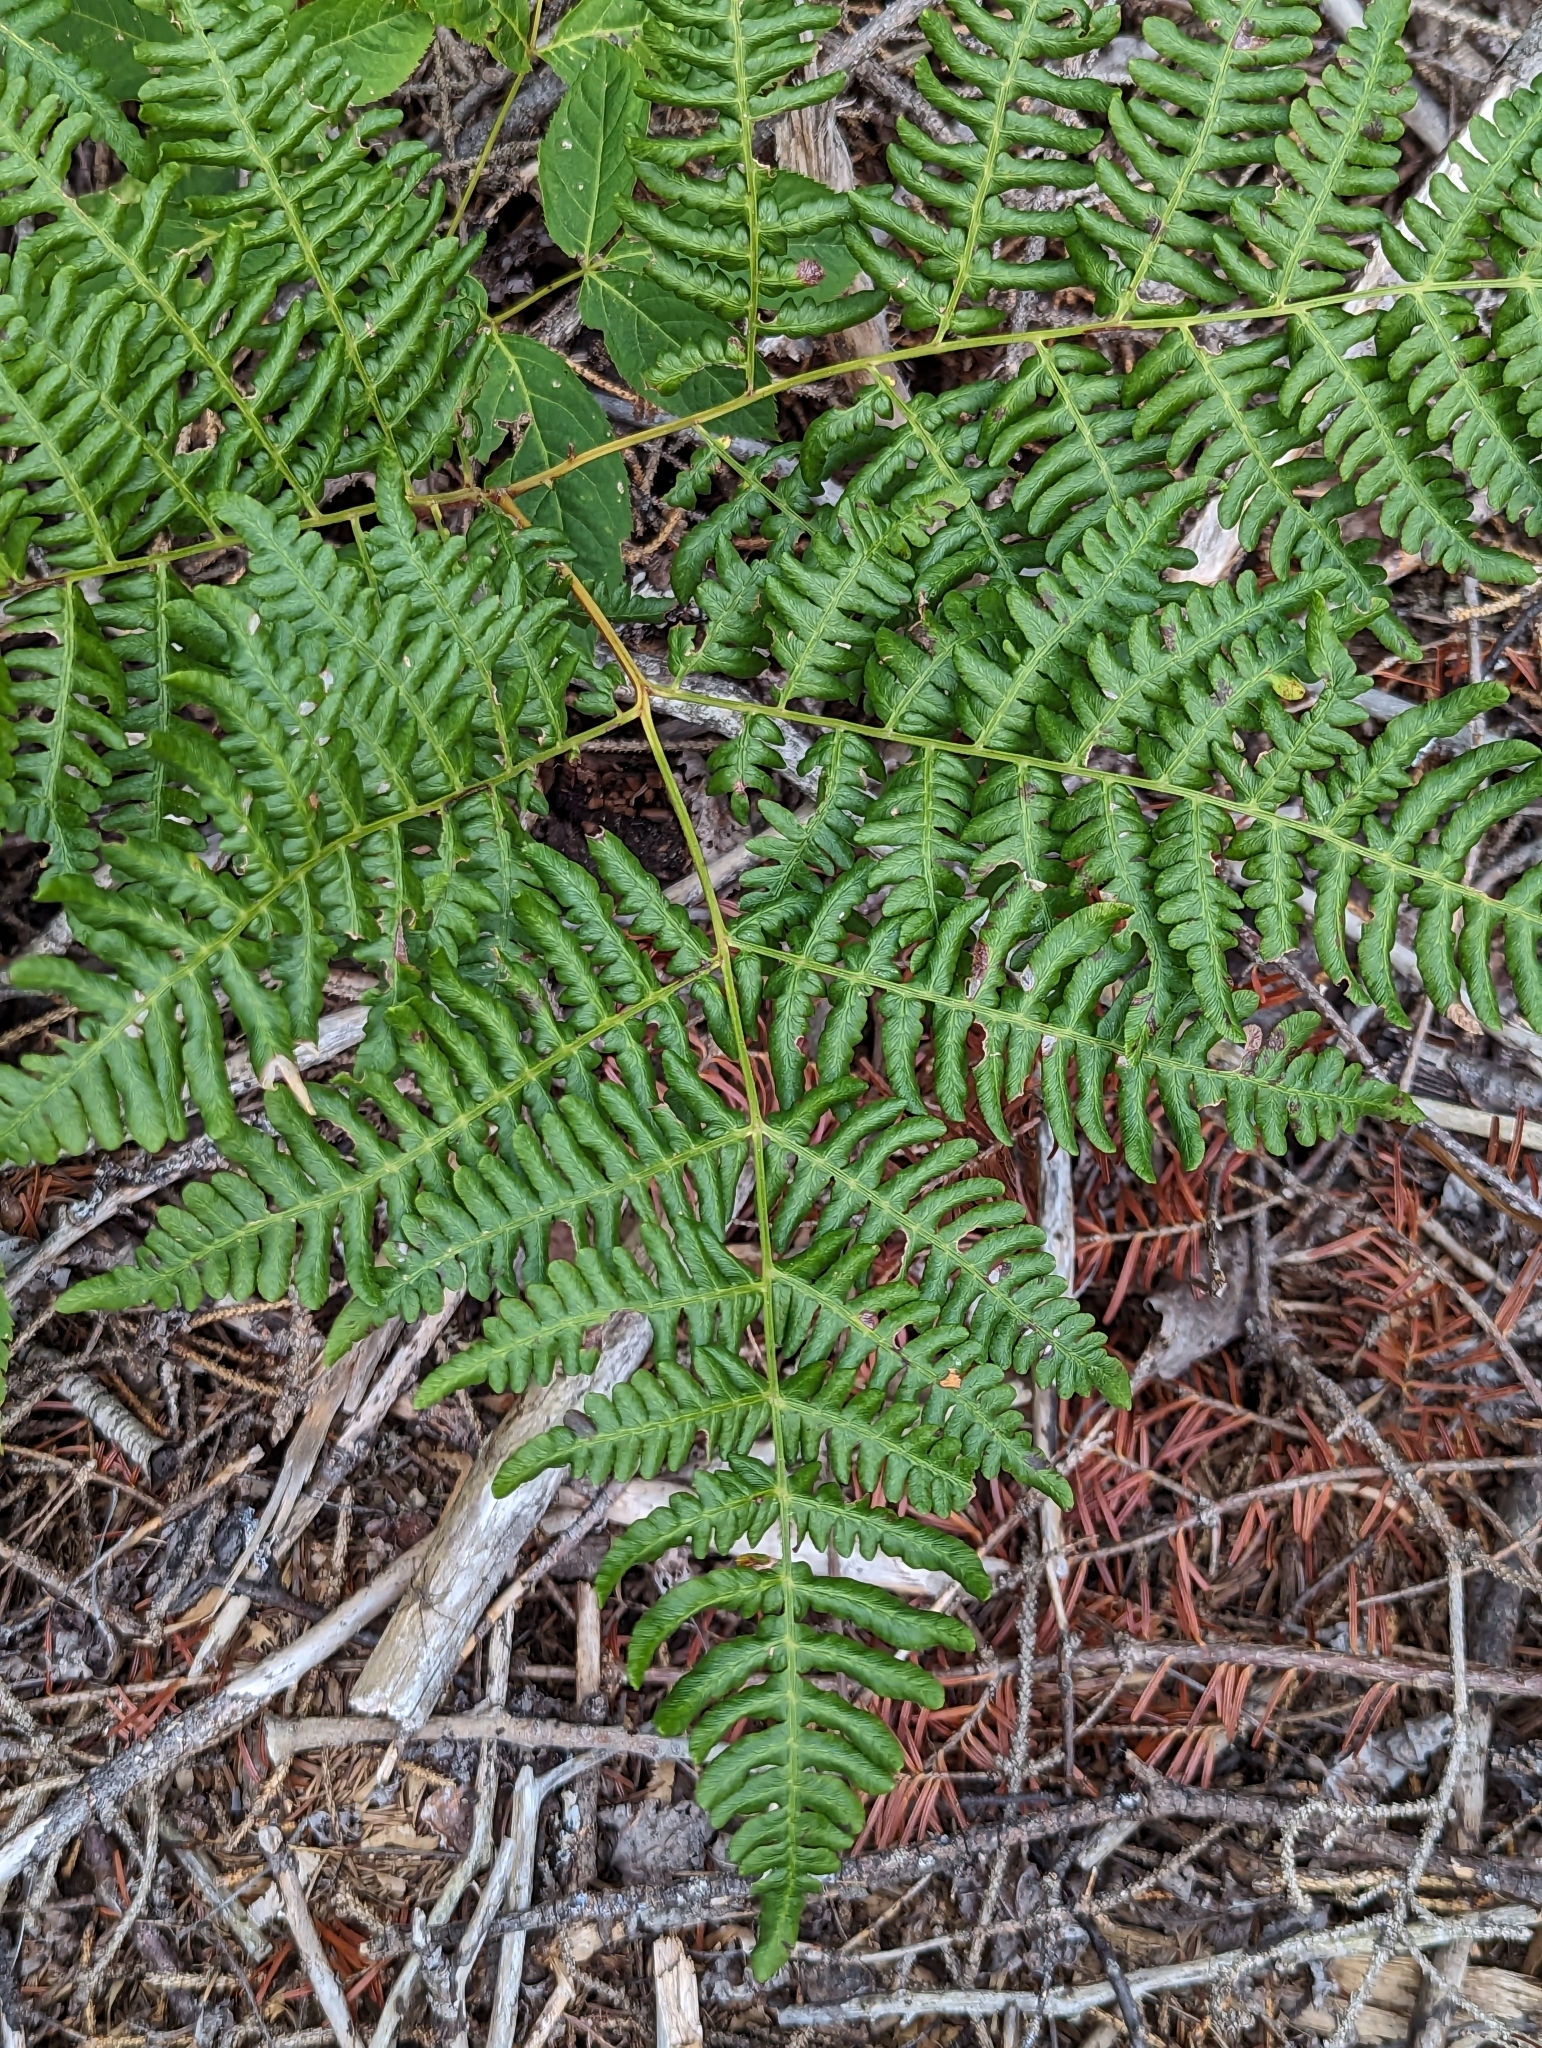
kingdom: Plantae
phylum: Tracheophyta
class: Polypodiopsida
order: Polypodiales
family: Dennstaedtiaceae
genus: Pteridium
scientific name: Pteridium aquilinum
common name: Bracken
